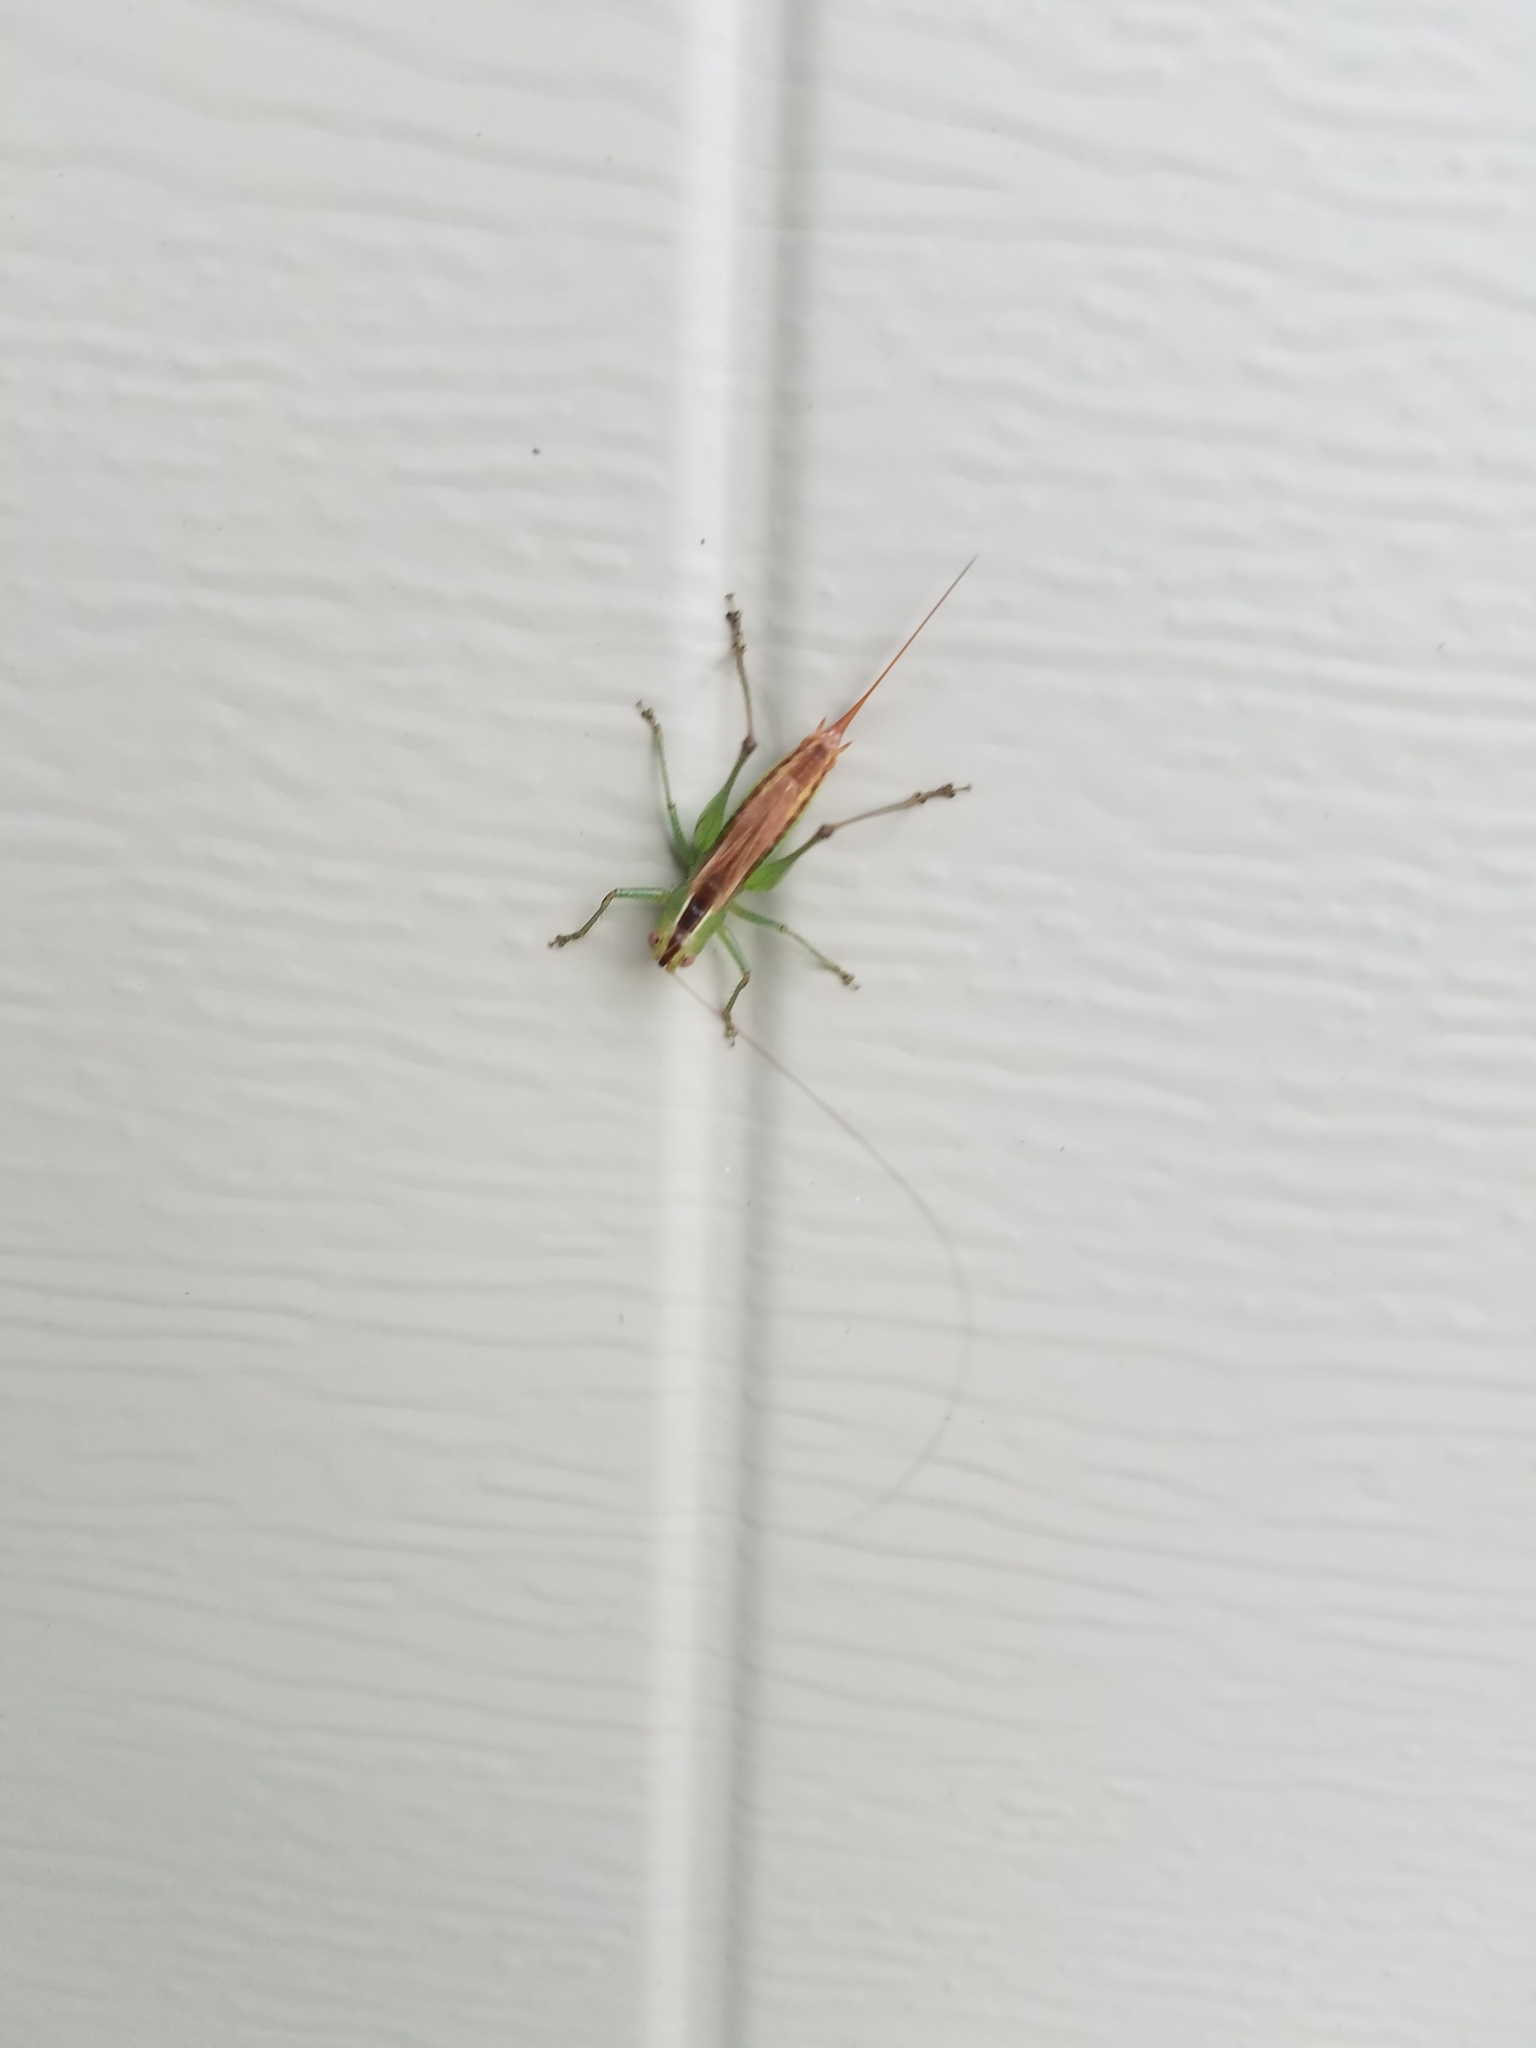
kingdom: Animalia
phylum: Arthropoda
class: Insecta
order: Orthoptera
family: Tettigoniidae
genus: Conocephalus
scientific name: Conocephalus brevipennis
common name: Short-winged meadow katydid
